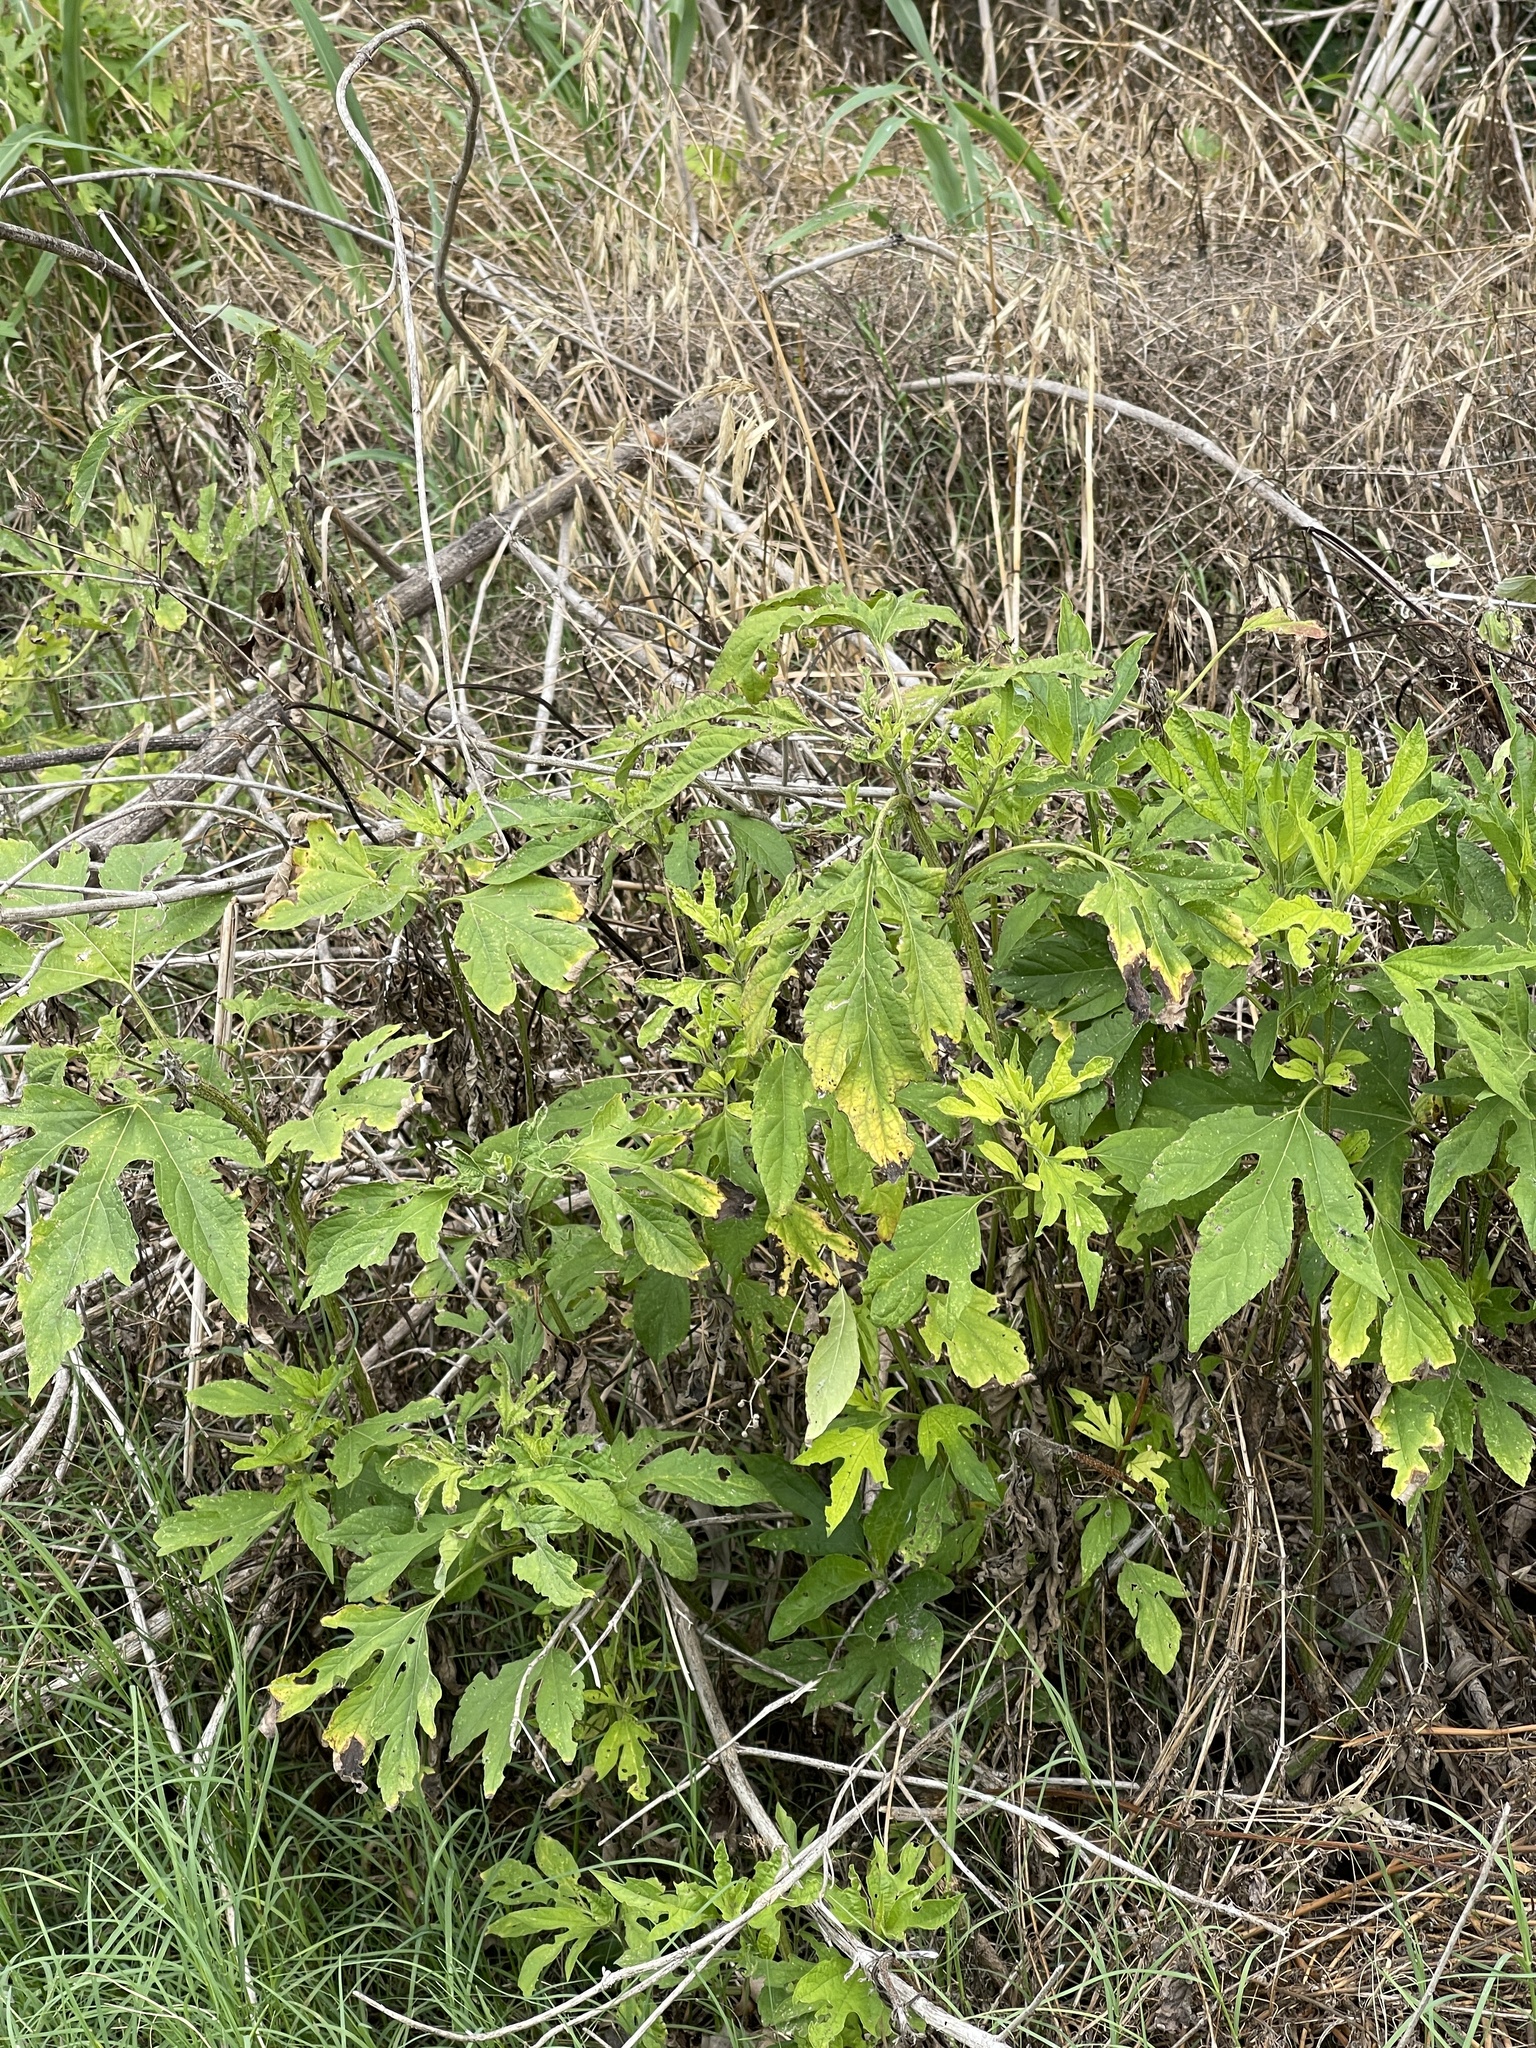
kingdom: Plantae
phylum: Tracheophyta
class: Magnoliopsida
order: Asterales
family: Asteraceae
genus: Ambrosia
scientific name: Ambrosia trifida
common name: Giant ragweed
